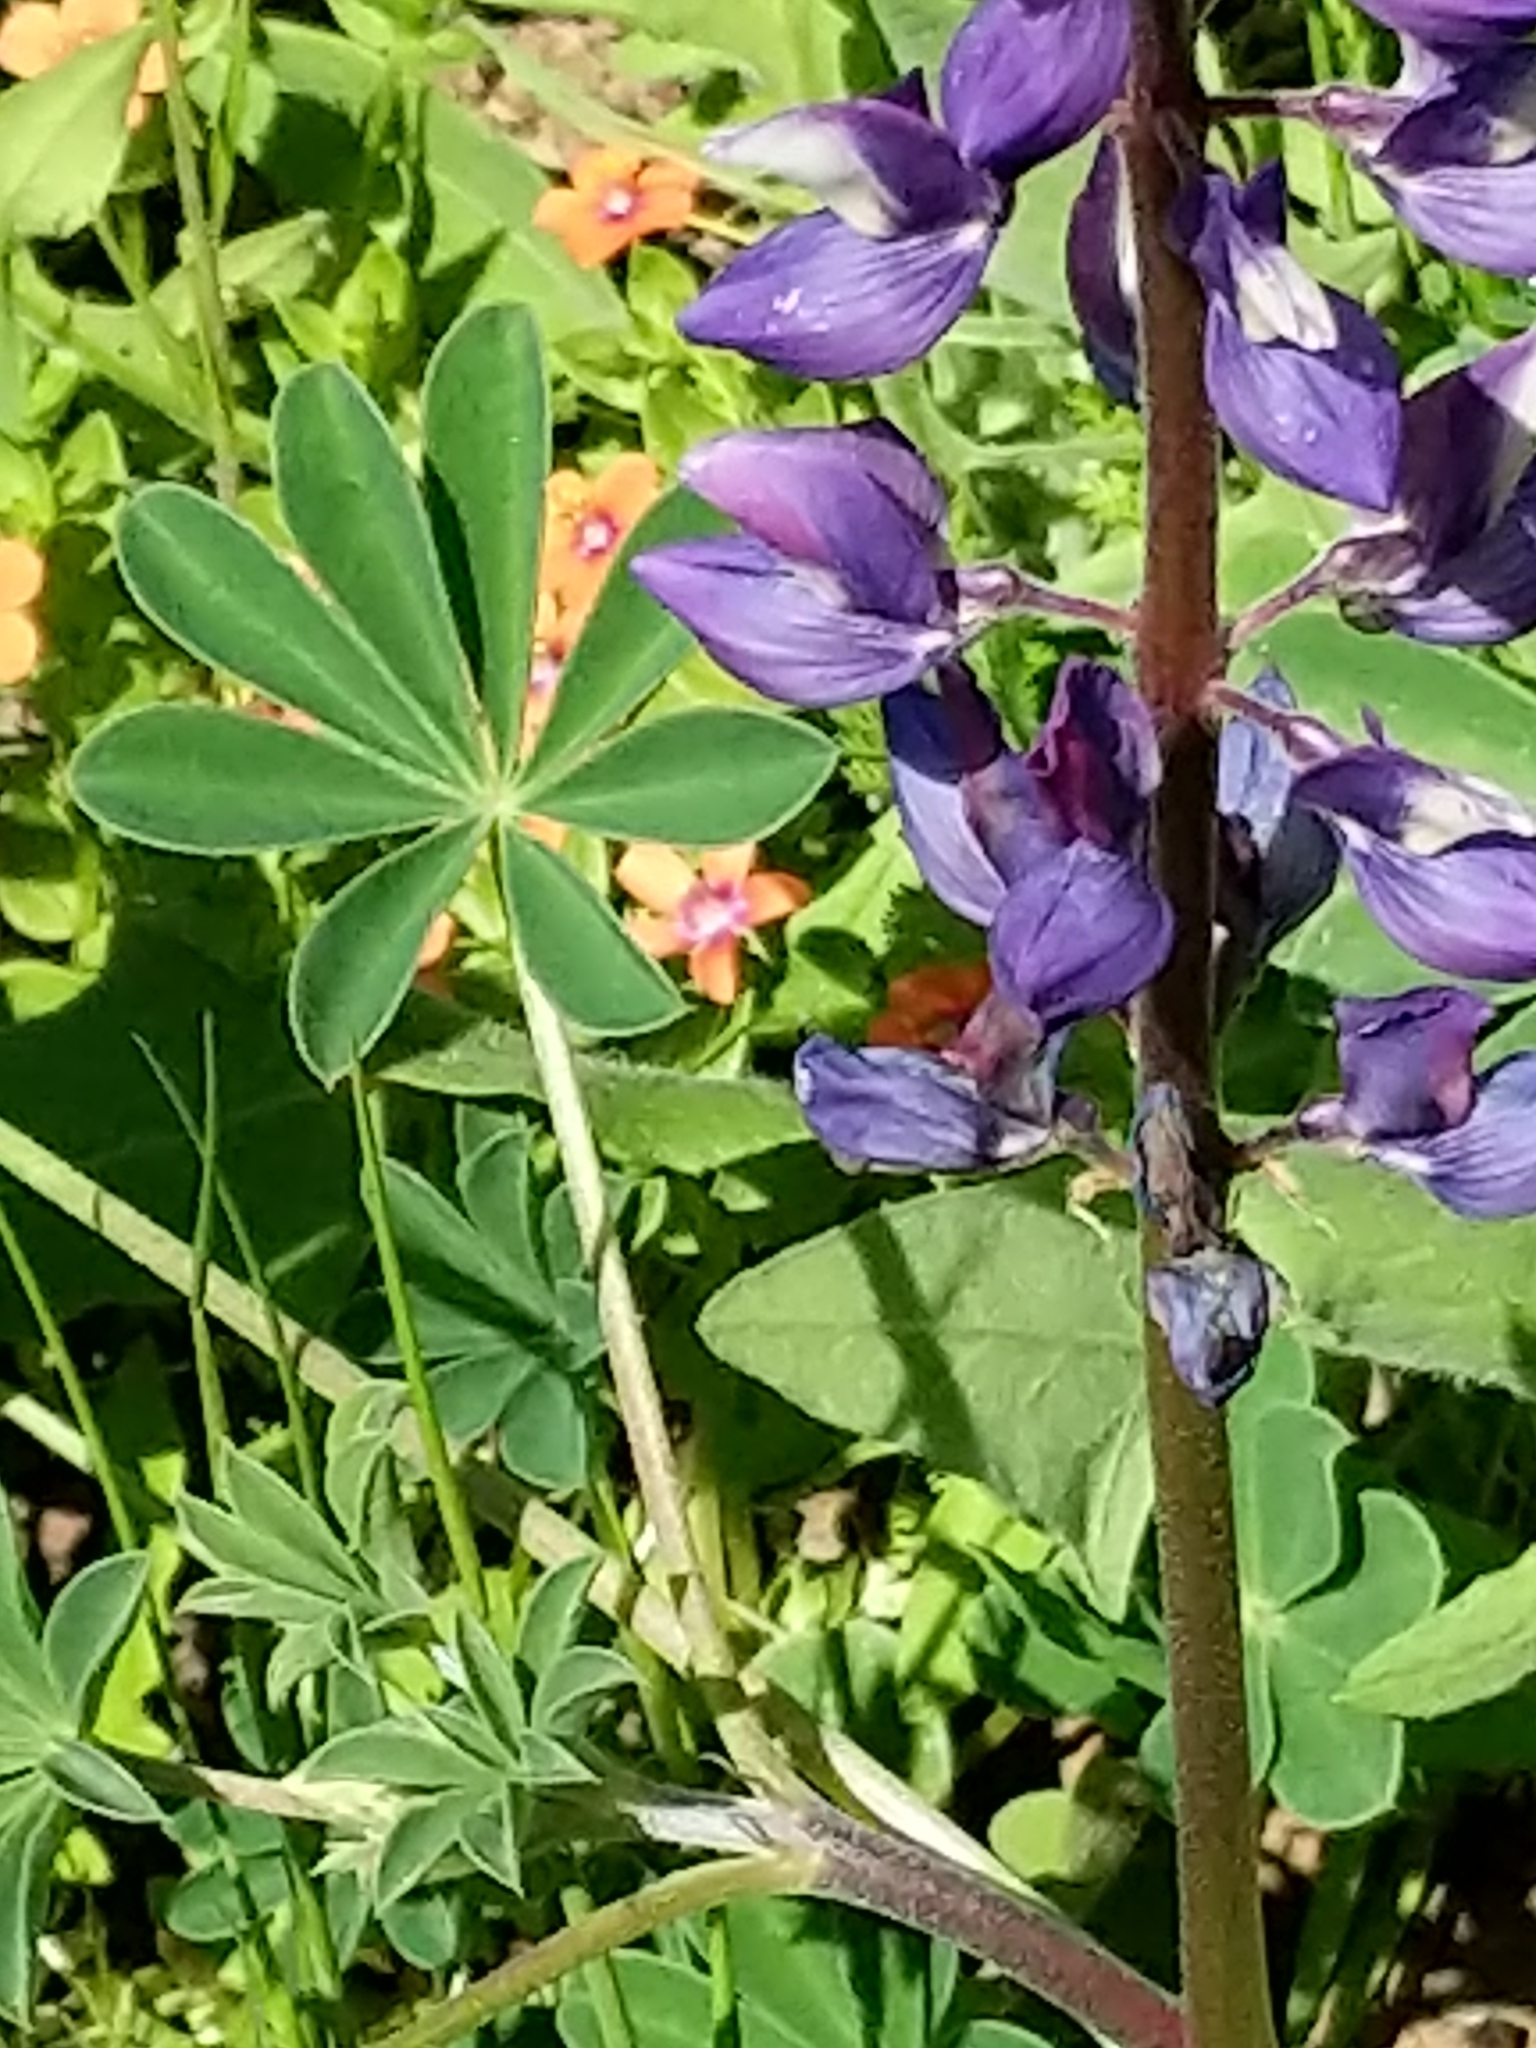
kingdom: Plantae
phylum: Tracheophyta
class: Magnoliopsida
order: Fabales
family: Fabaceae
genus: Lupinus
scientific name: Lupinus succulentus
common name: Arroyo lupine
